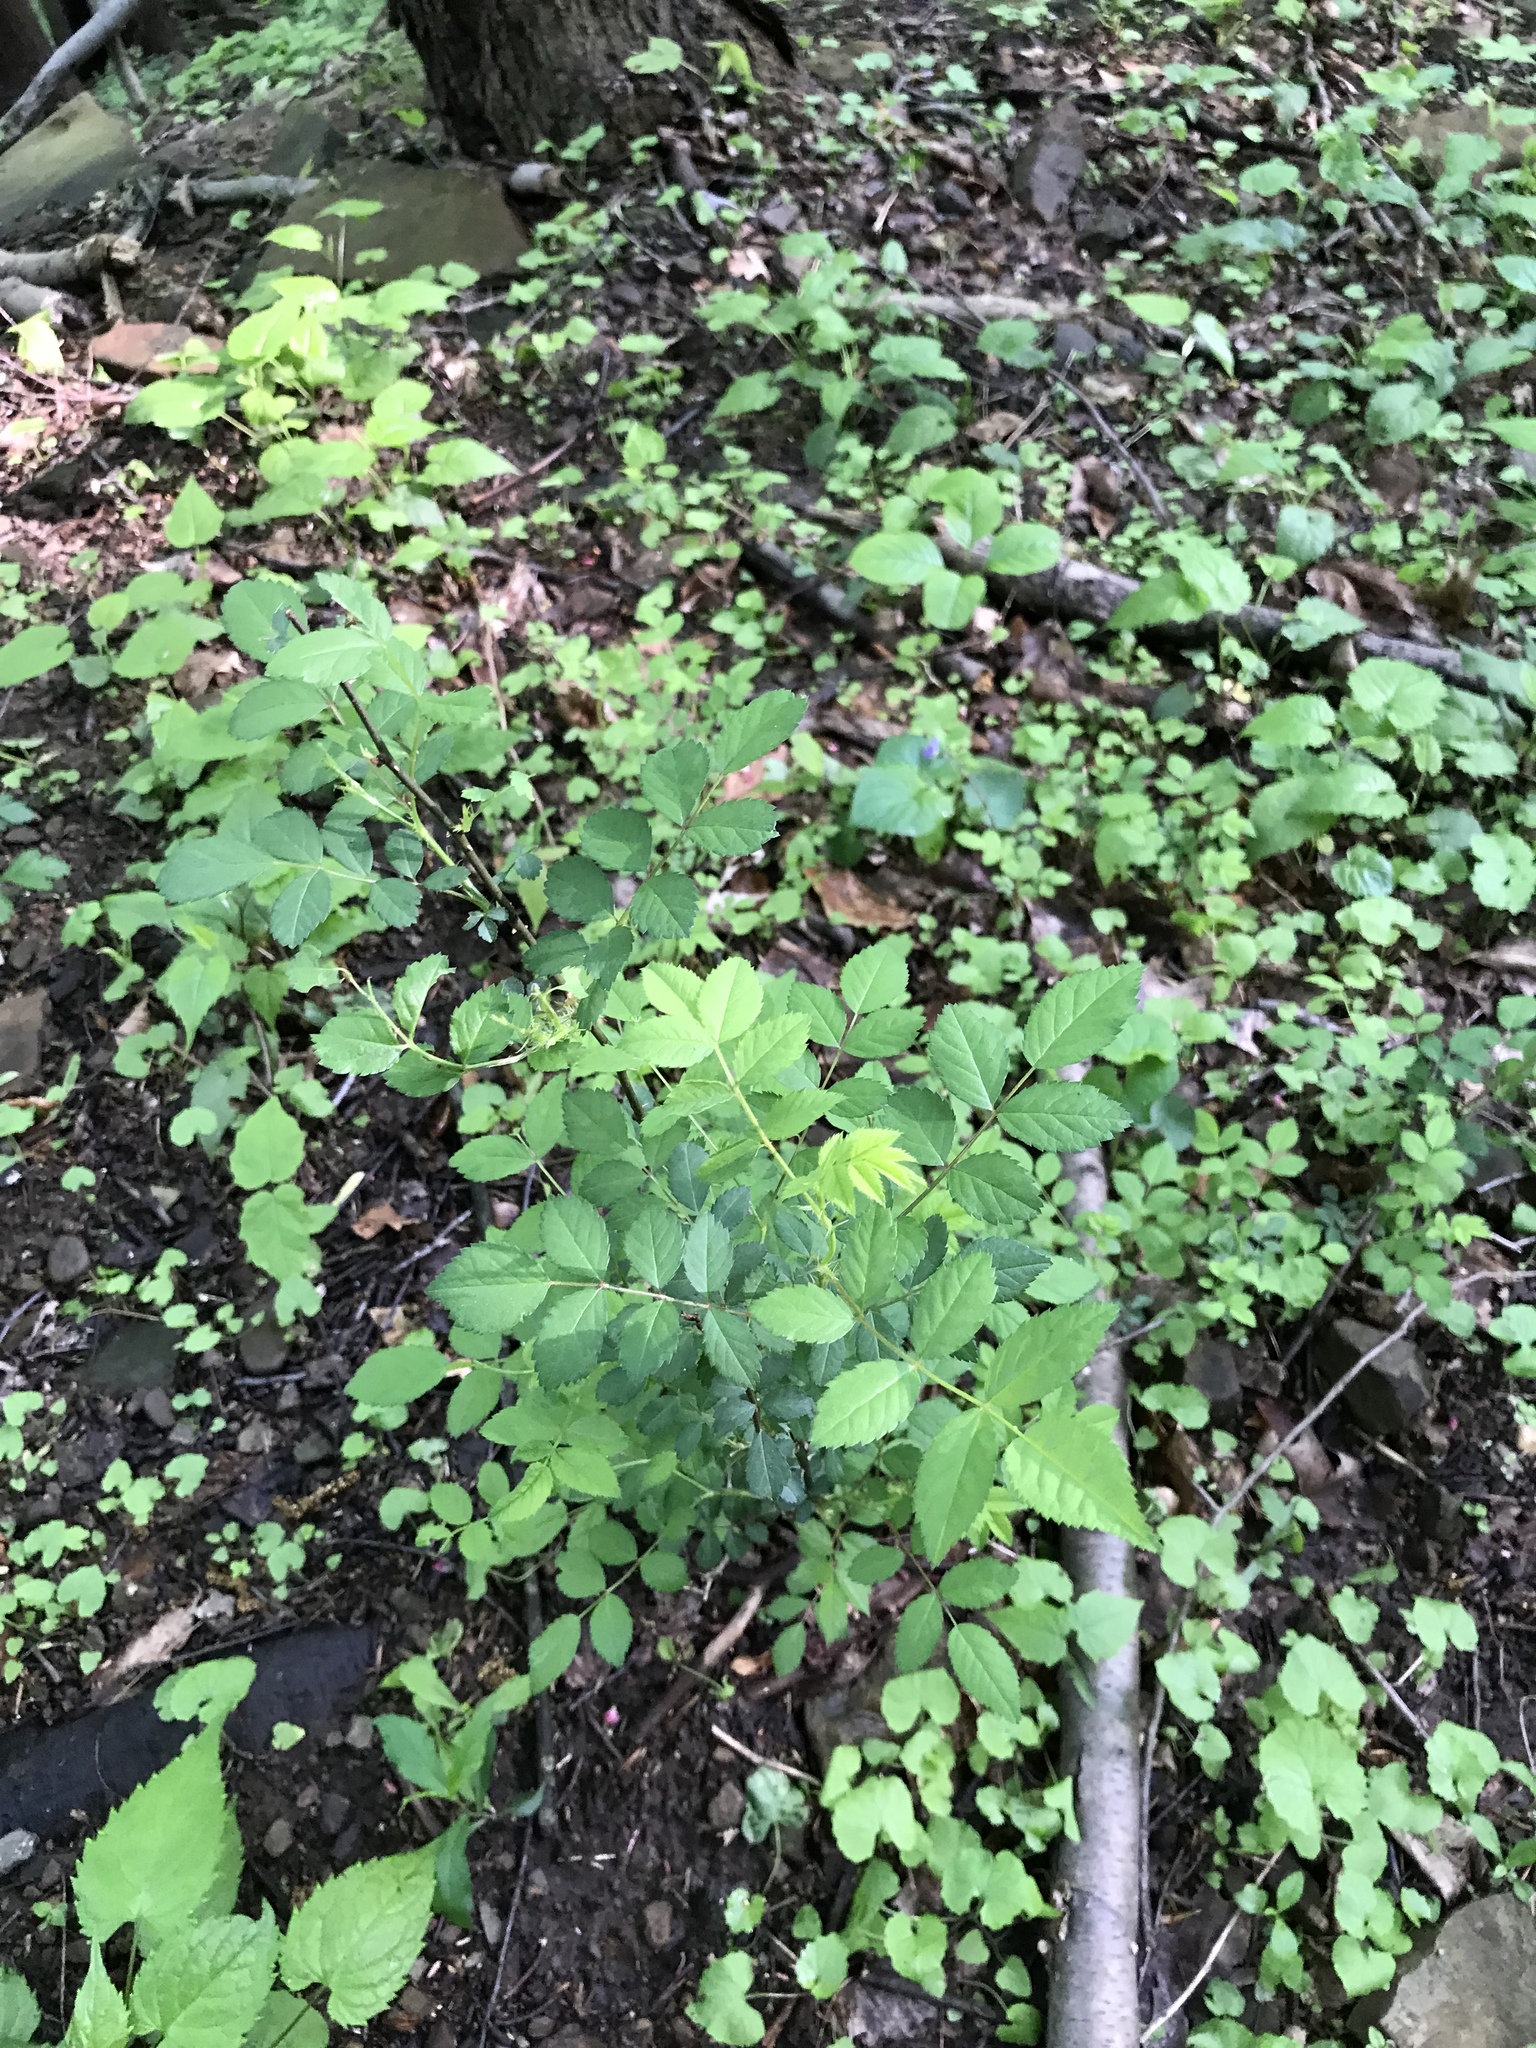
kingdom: Plantae
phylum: Tracheophyta
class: Magnoliopsida
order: Rosales
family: Rosaceae
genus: Rosa
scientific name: Rosa multiflora
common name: Multiflora rose
